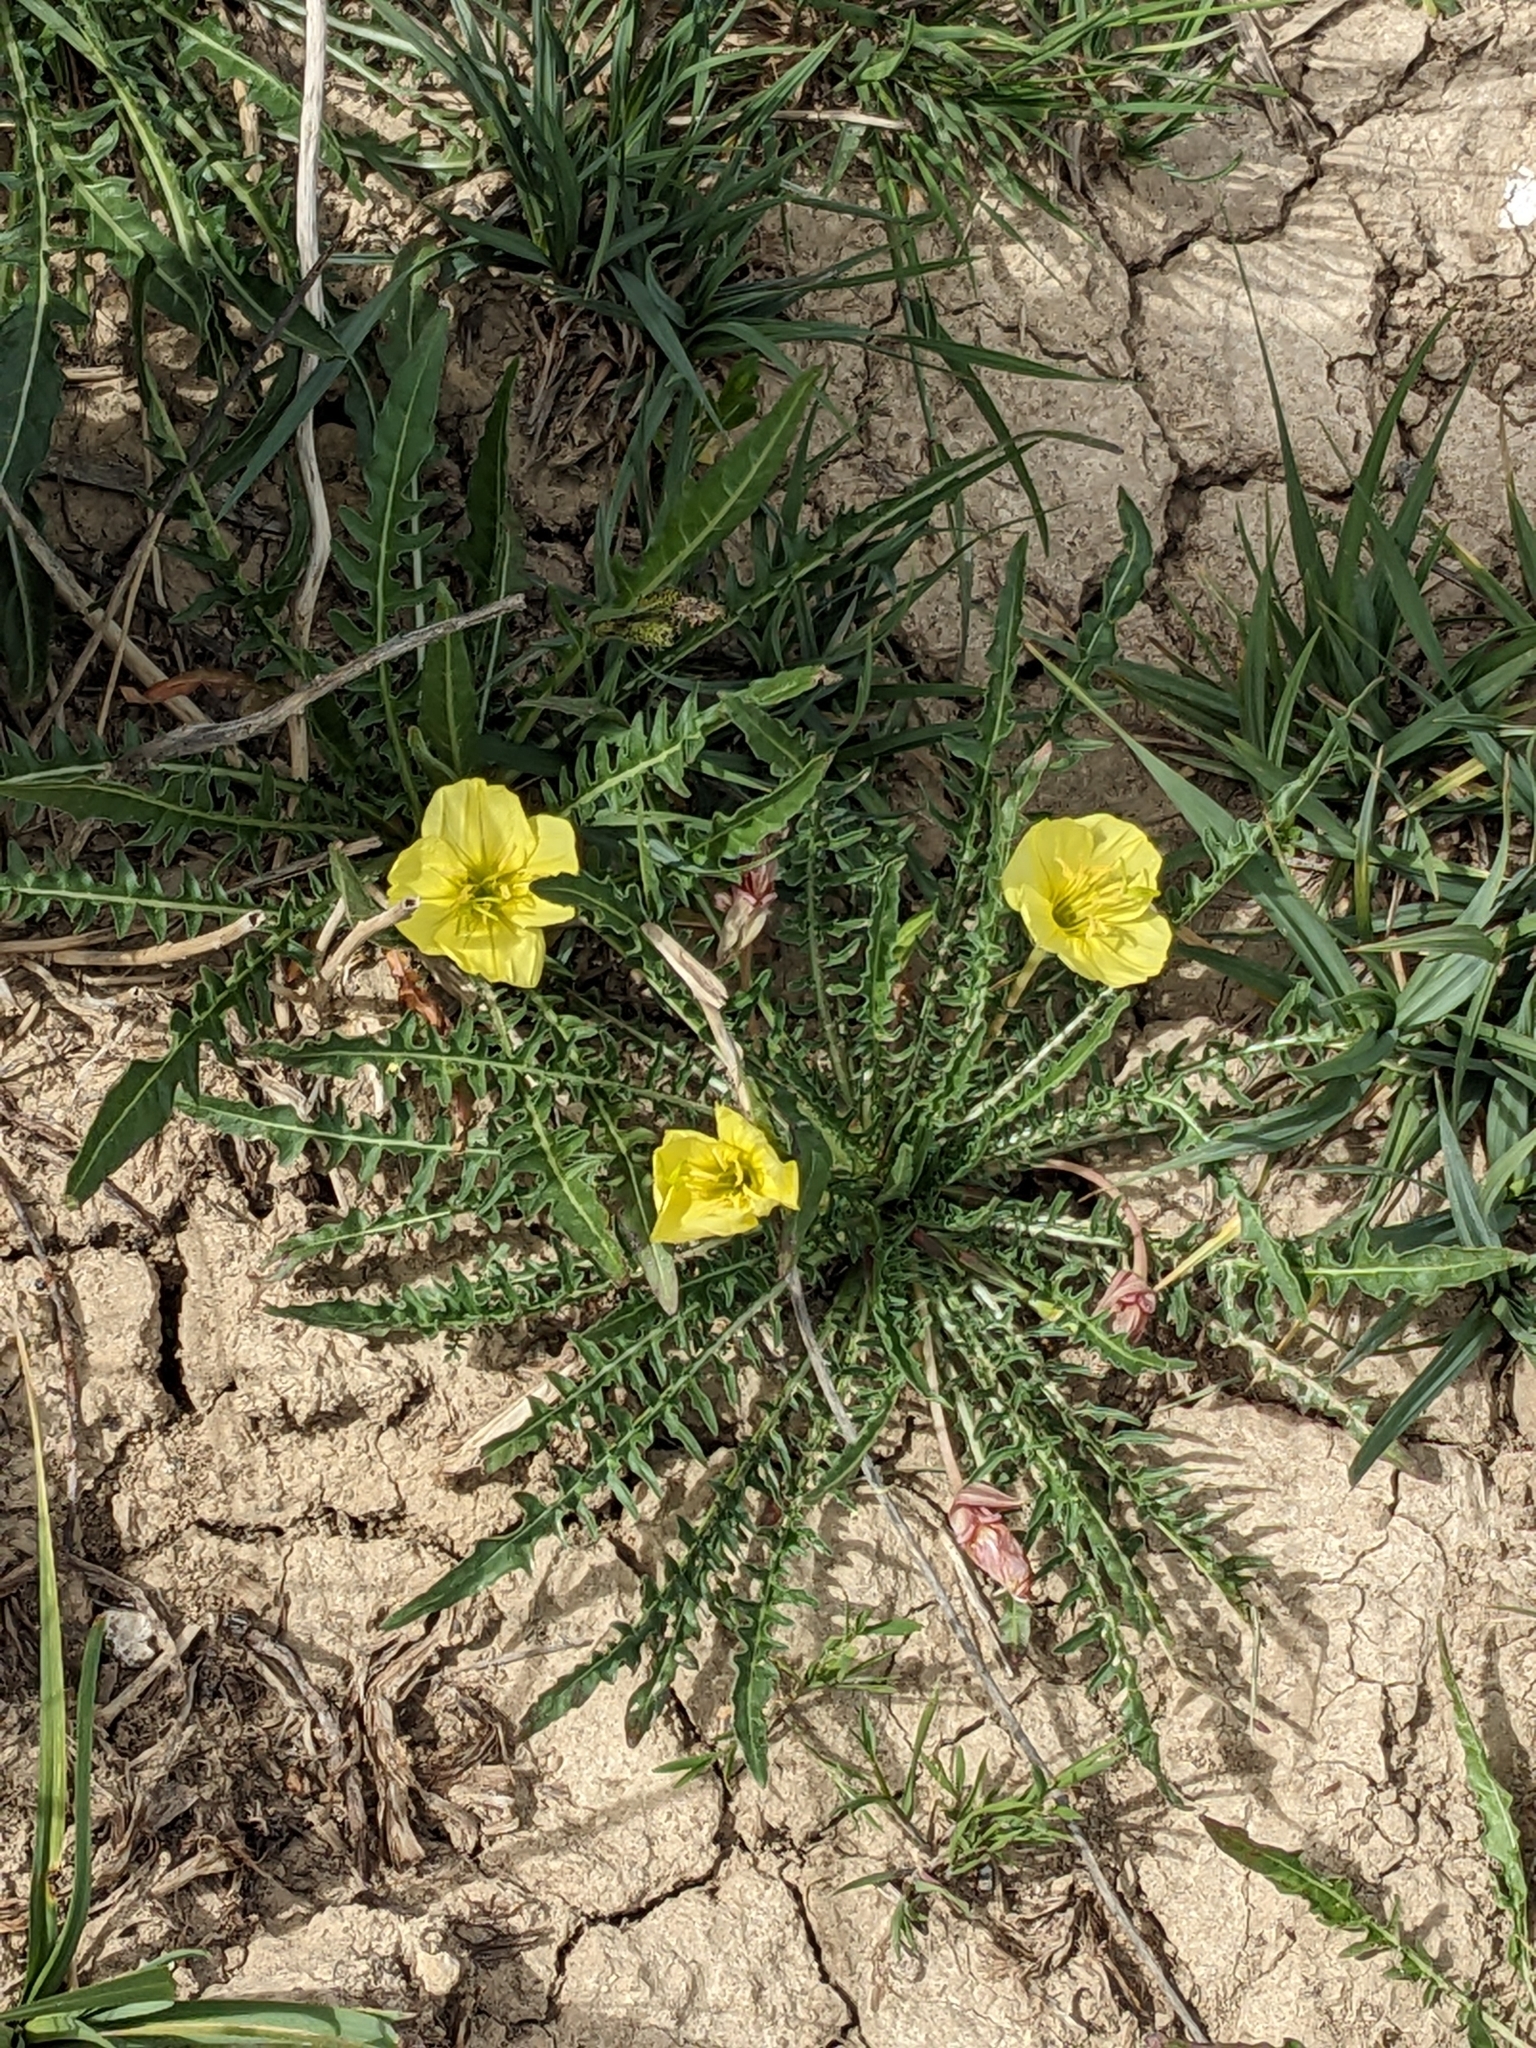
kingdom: Plantae
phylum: Tracheophyta
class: Magnoliopsida
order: Myrtales
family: Onagraceae
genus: Oenothera
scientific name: Oenothera flava
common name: Long-tubed evening-primrose
